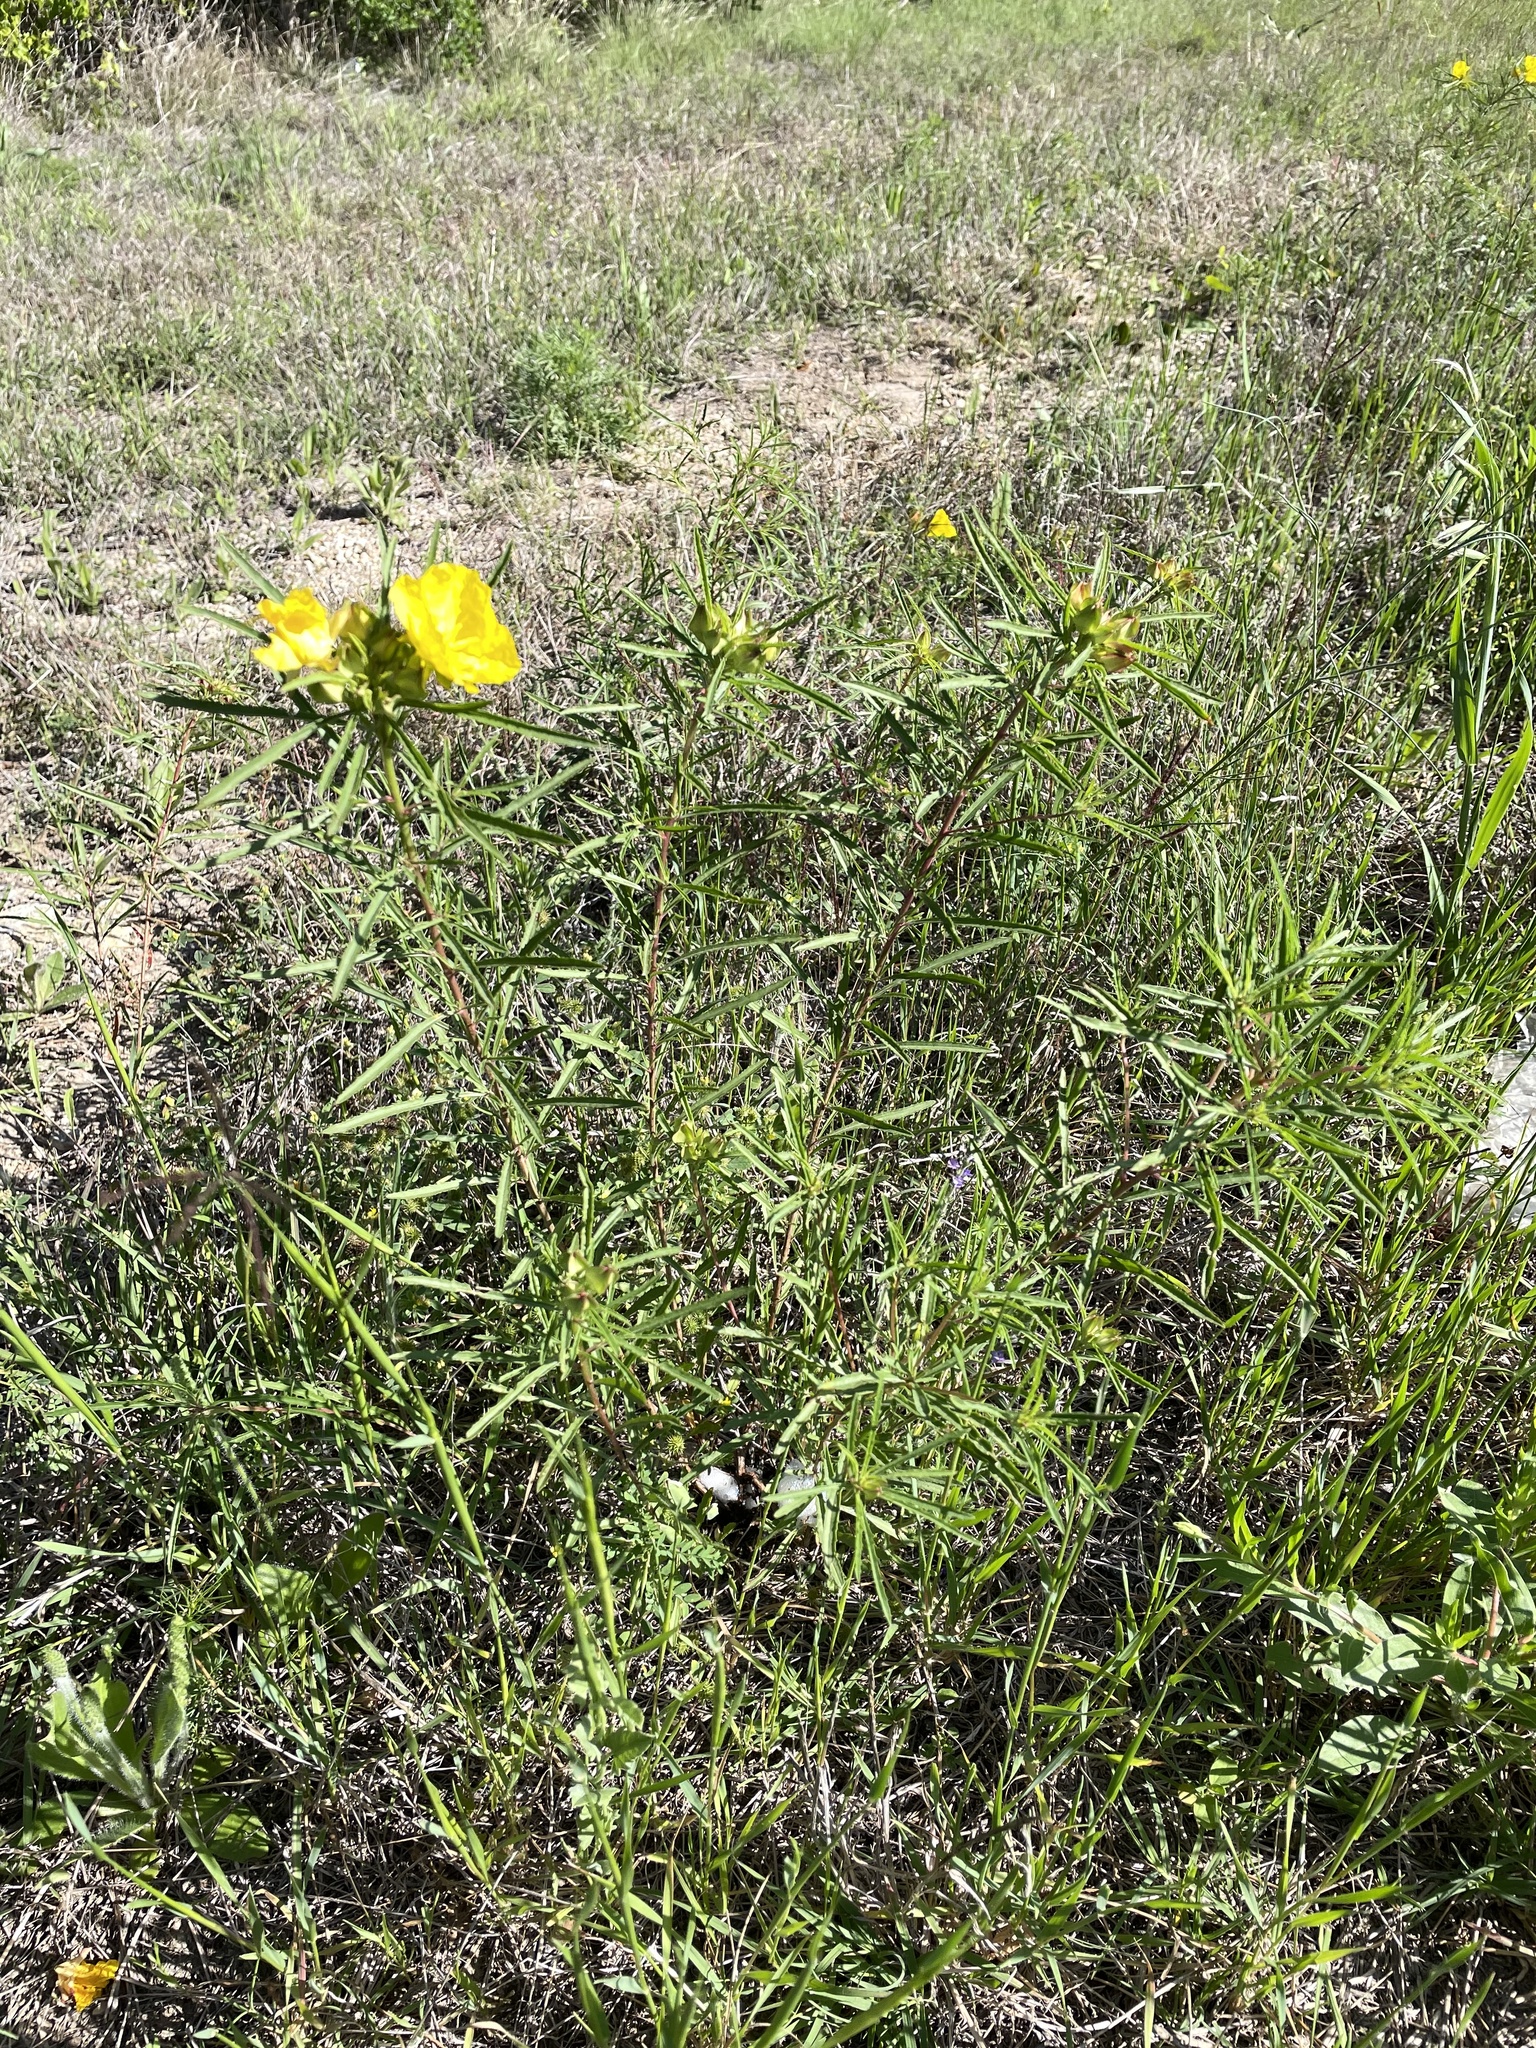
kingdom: Plantae
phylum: Tracheophyta
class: Magnoliopsida
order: Myrtales
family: Onagraceae
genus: Oenothera
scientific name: Oenothera
